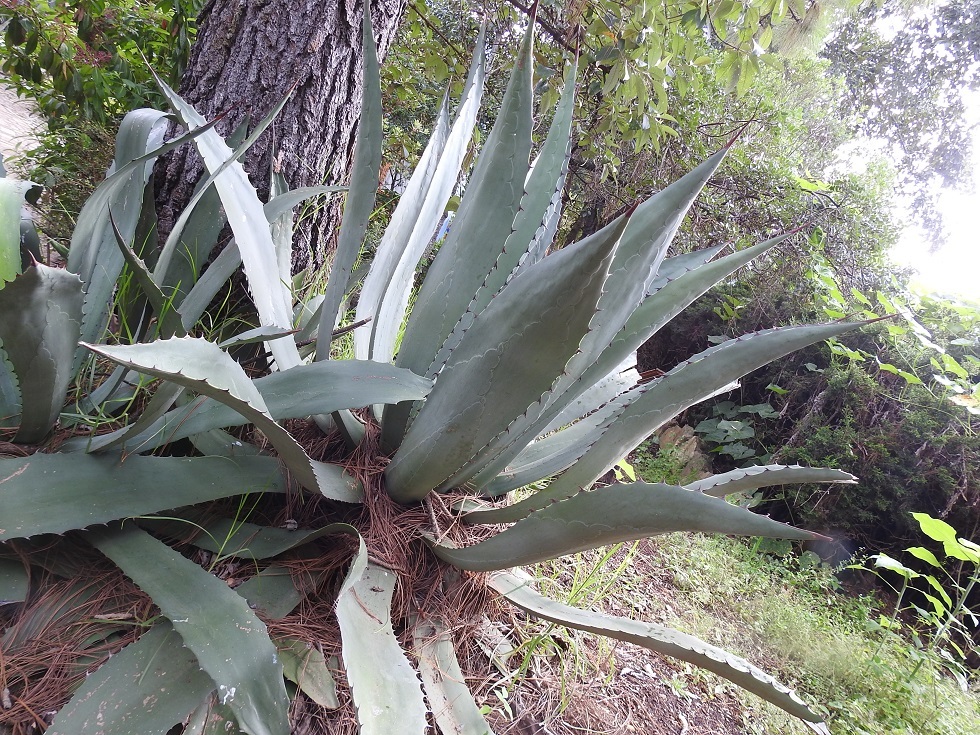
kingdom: Plantae
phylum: Tracheophyta
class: Liliopsida
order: Asparagales
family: Asparagaceae
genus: Agave
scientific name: Agave americana
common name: Centuryplant
